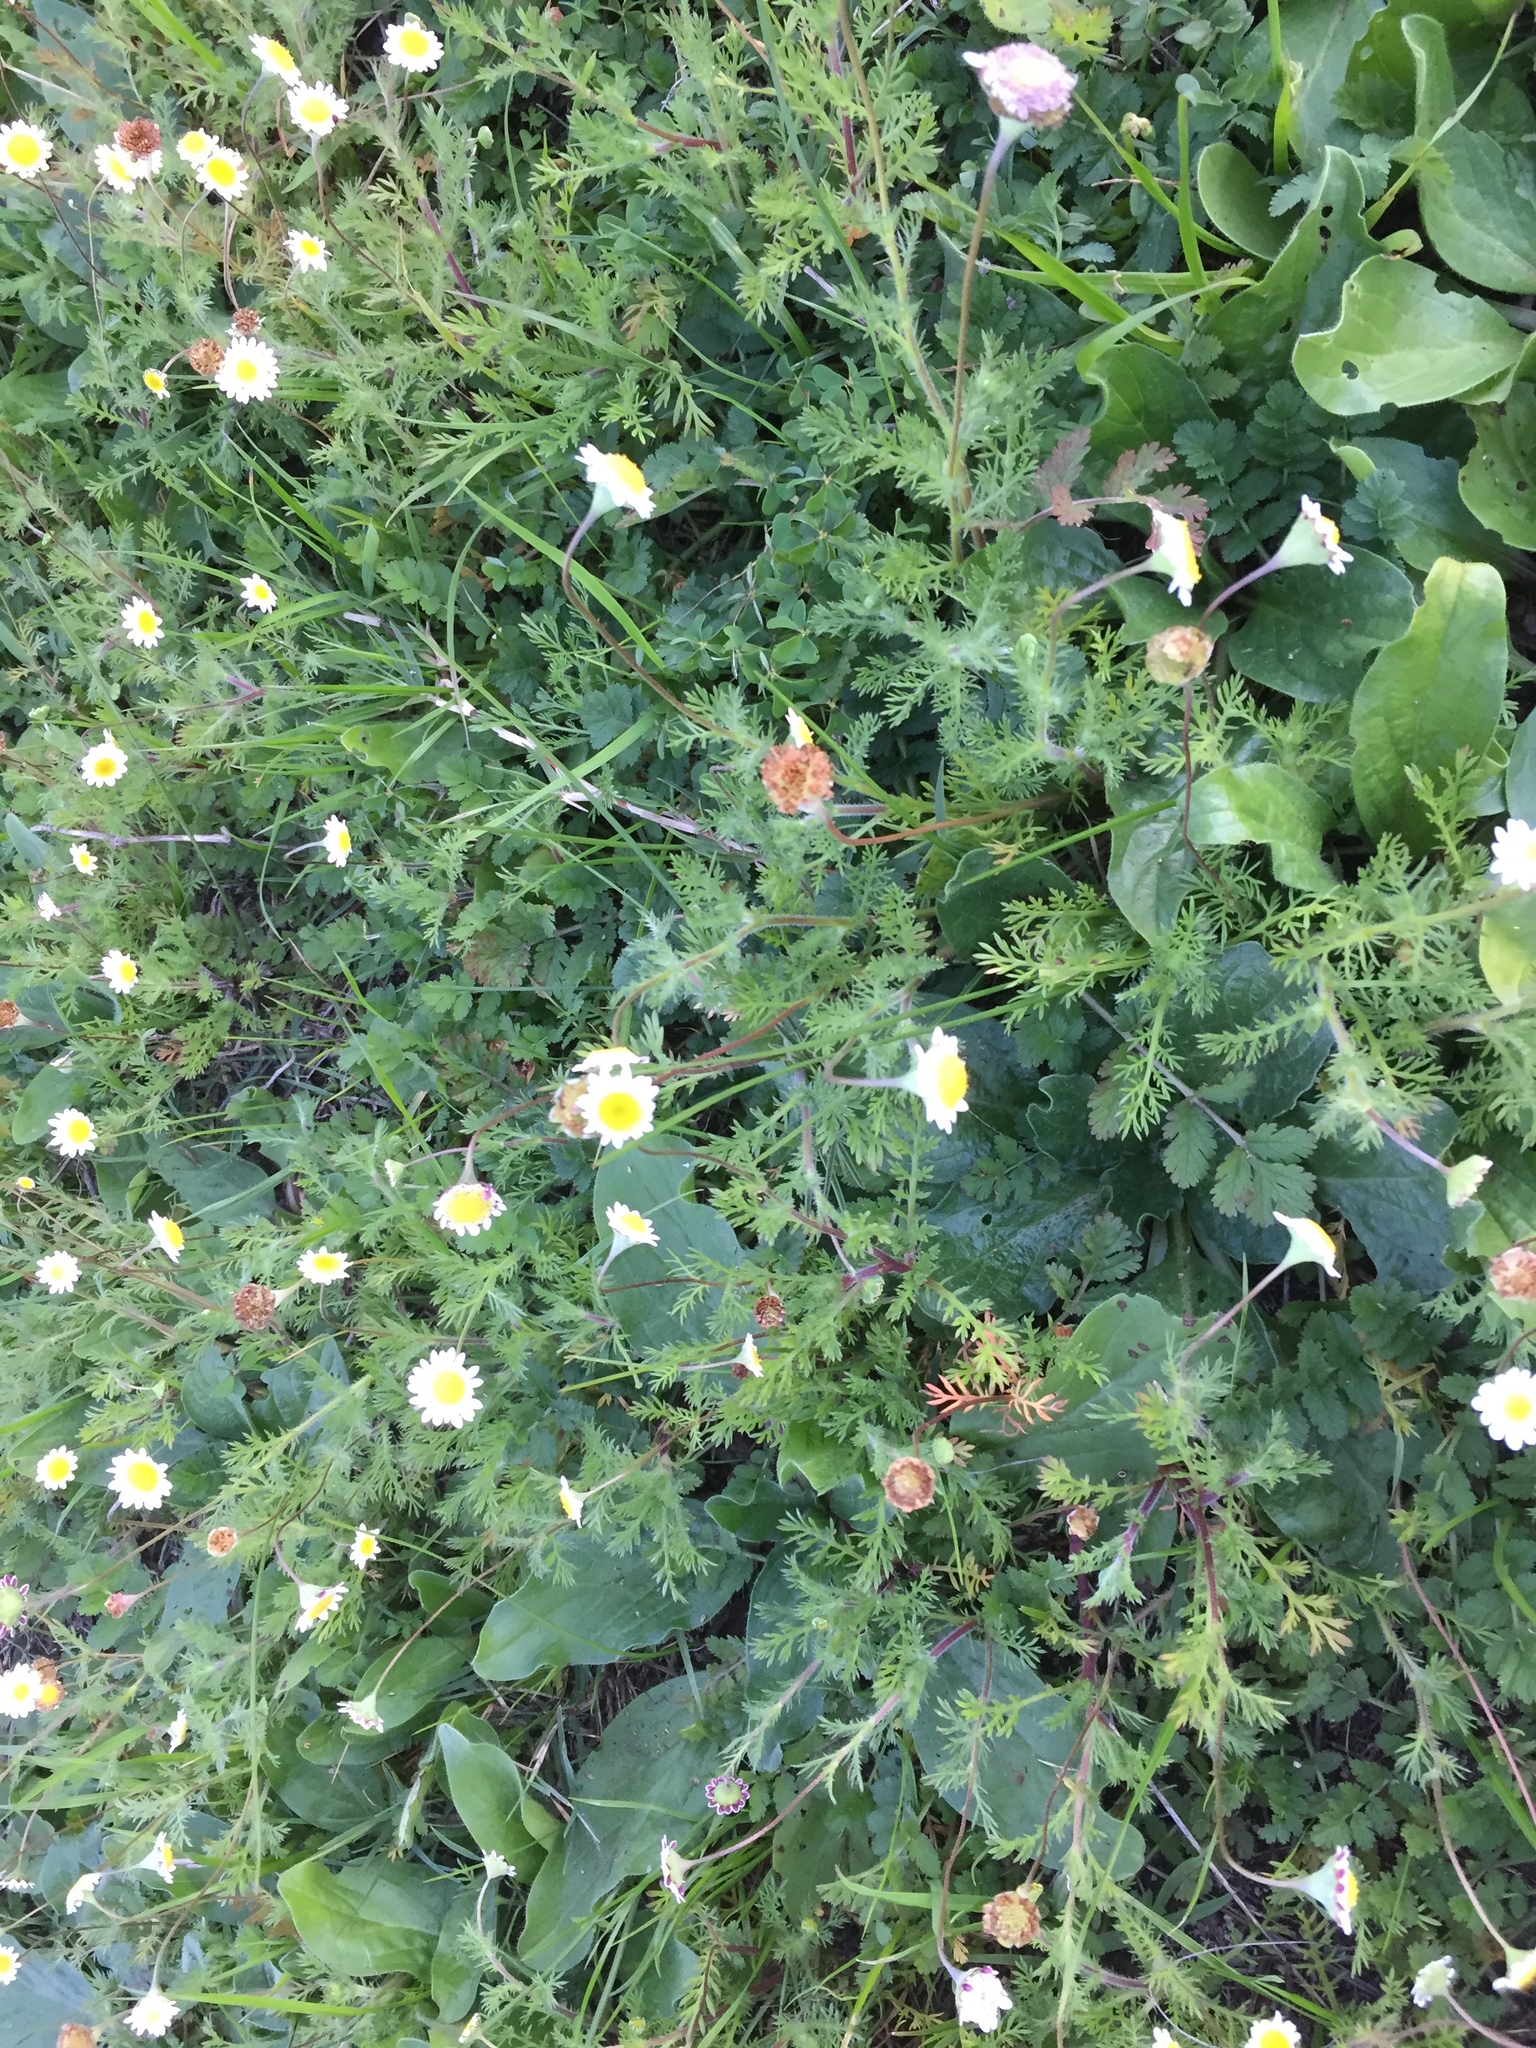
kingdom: Plantae
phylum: Tracheophyta
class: Magnoliopsida
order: Asterales
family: Asteraceae
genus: Cotula
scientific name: Cotula turbinata
